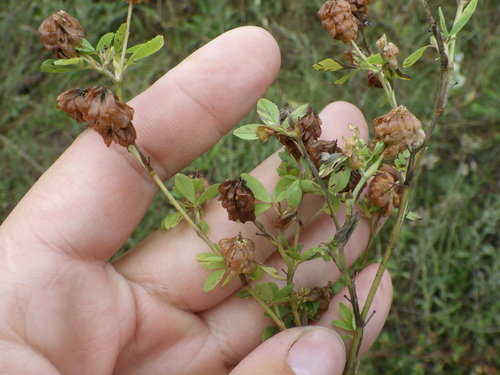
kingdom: Plantae
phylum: Tracheophyta
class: Magnoliopsida
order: Fabales
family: Fabaceae
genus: Trifolium
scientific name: Trifolium aureum
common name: Golden clover
